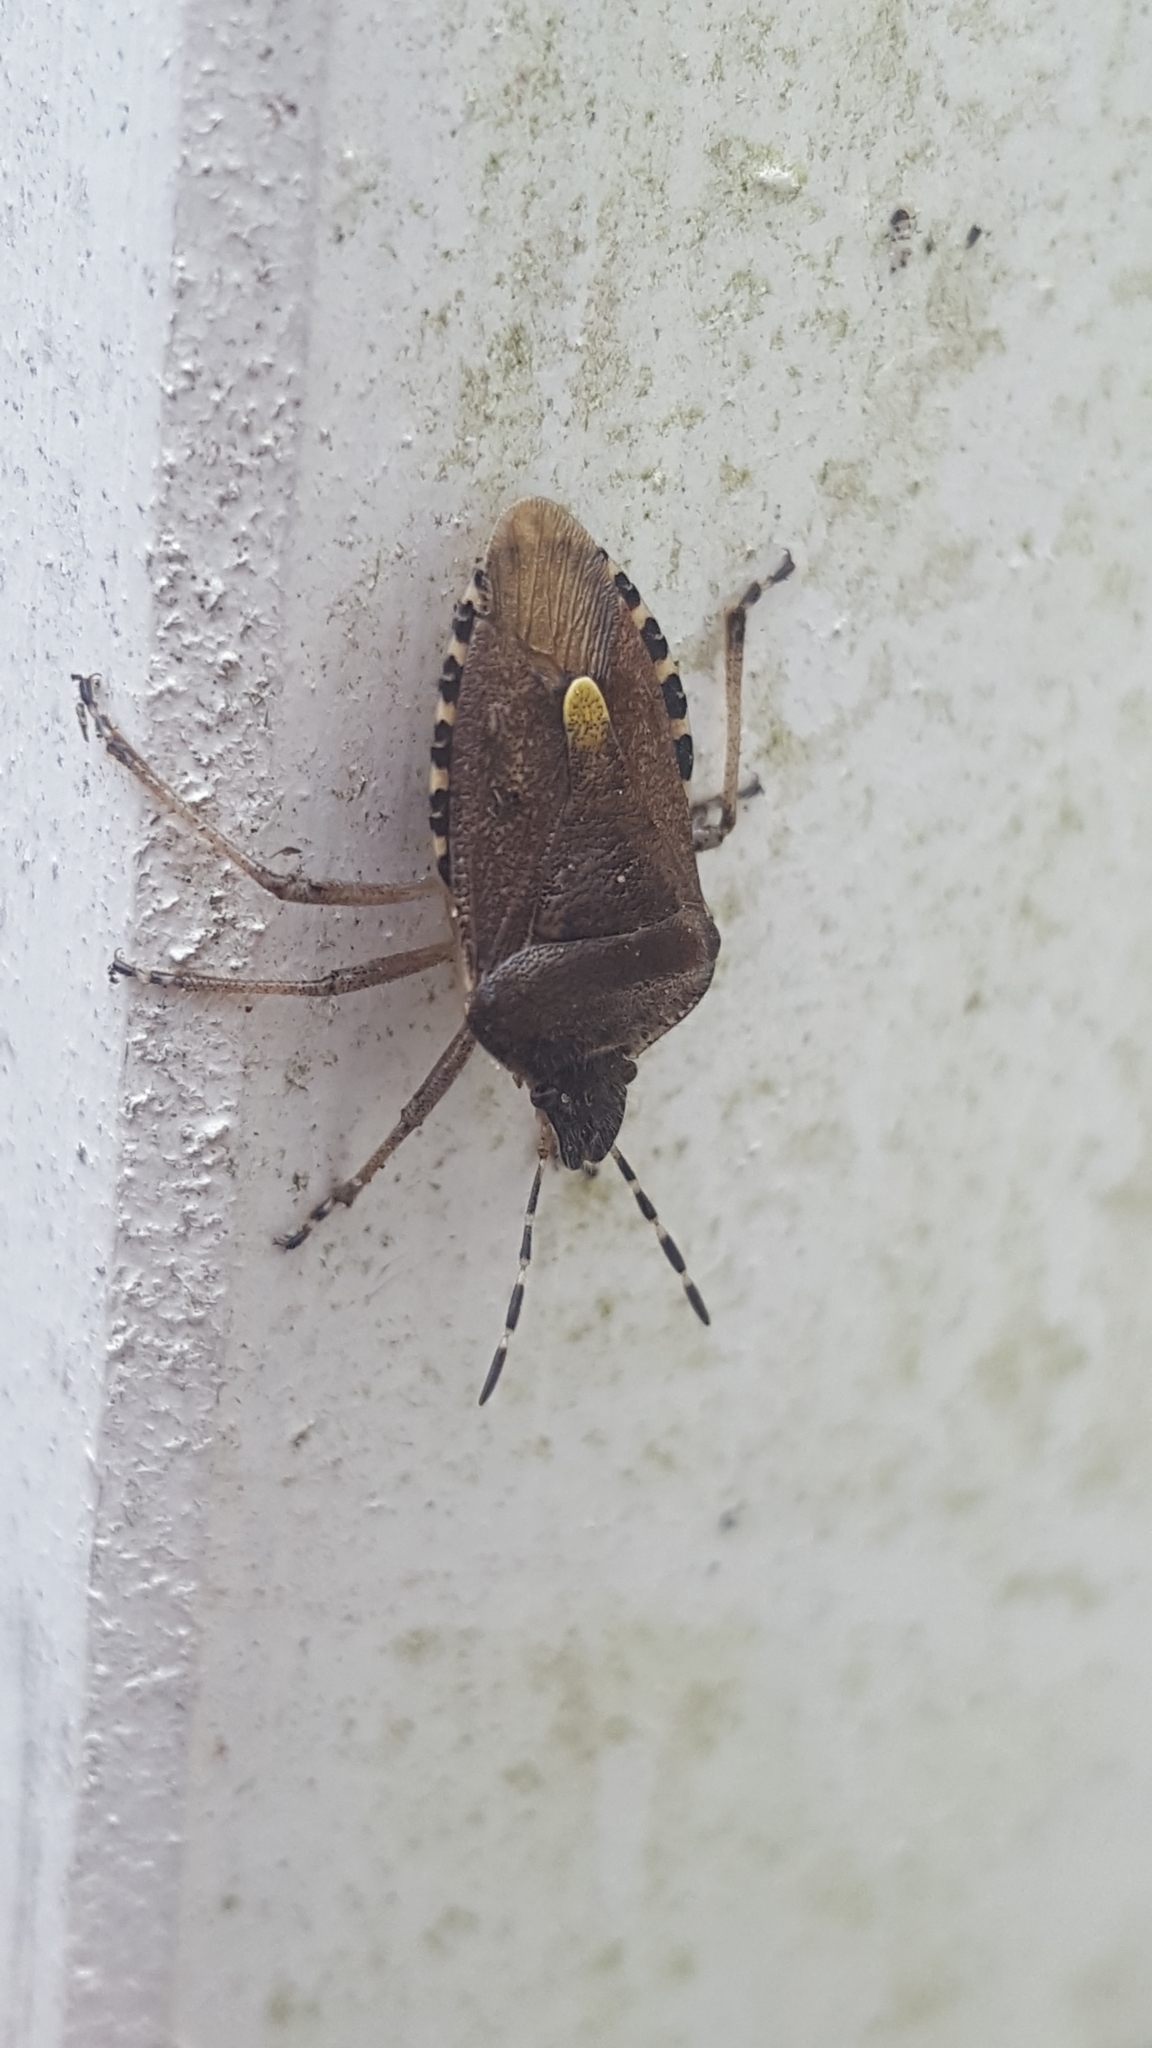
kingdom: Animalia
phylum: Arthropoda
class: Insecta
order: Hemiptera
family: Pentatomidae
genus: Dolycoris
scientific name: Dolycoris baccarum
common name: Sloe bug
